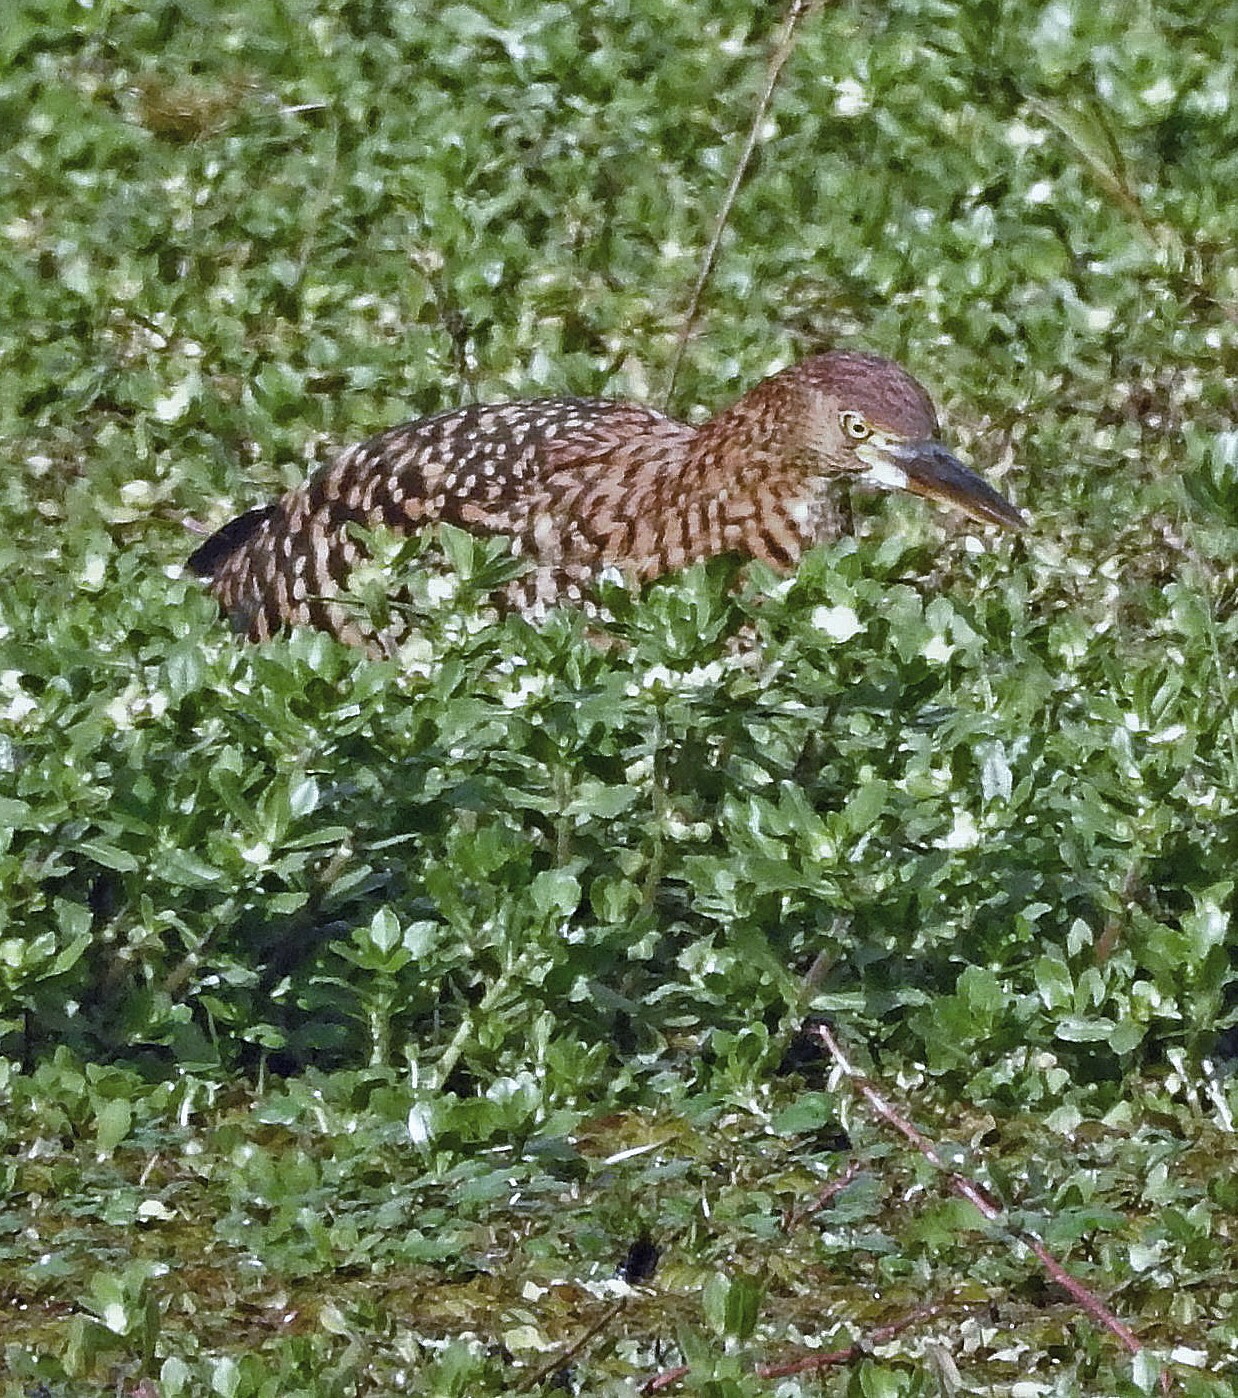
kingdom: Animalia
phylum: Chordata
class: Aves
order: Pelecaniformes
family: Ardeidae
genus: Tigrisoma
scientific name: Tigrisoma lineatum
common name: Rufescent tiger-heron
